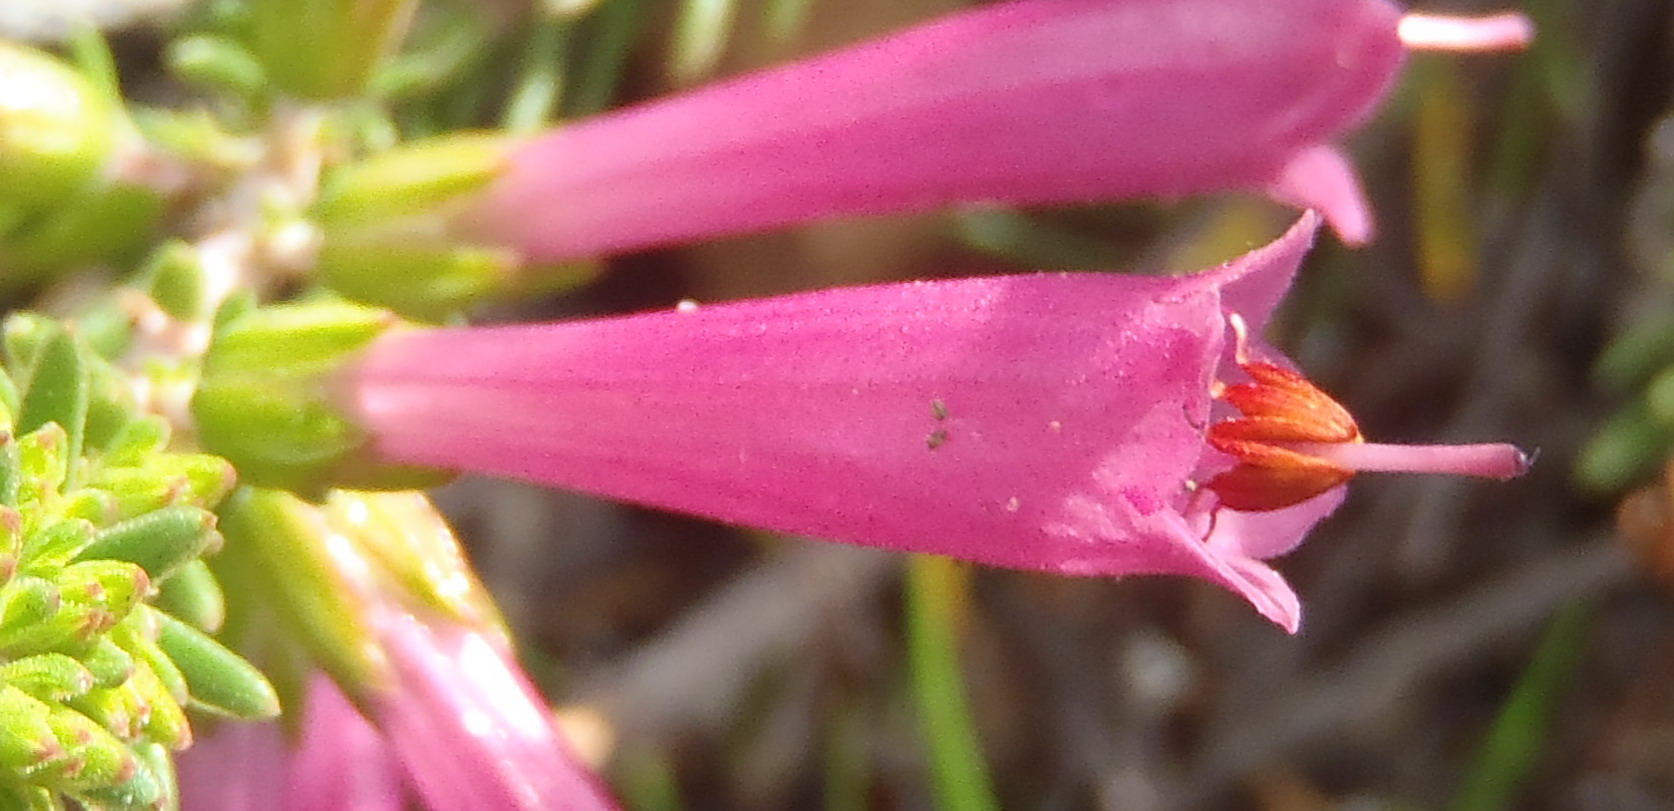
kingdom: Plantae
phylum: Tracheophyta
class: Magnoliopsida
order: Ericales
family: Ericaceae
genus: Erica
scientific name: Erica abietina
